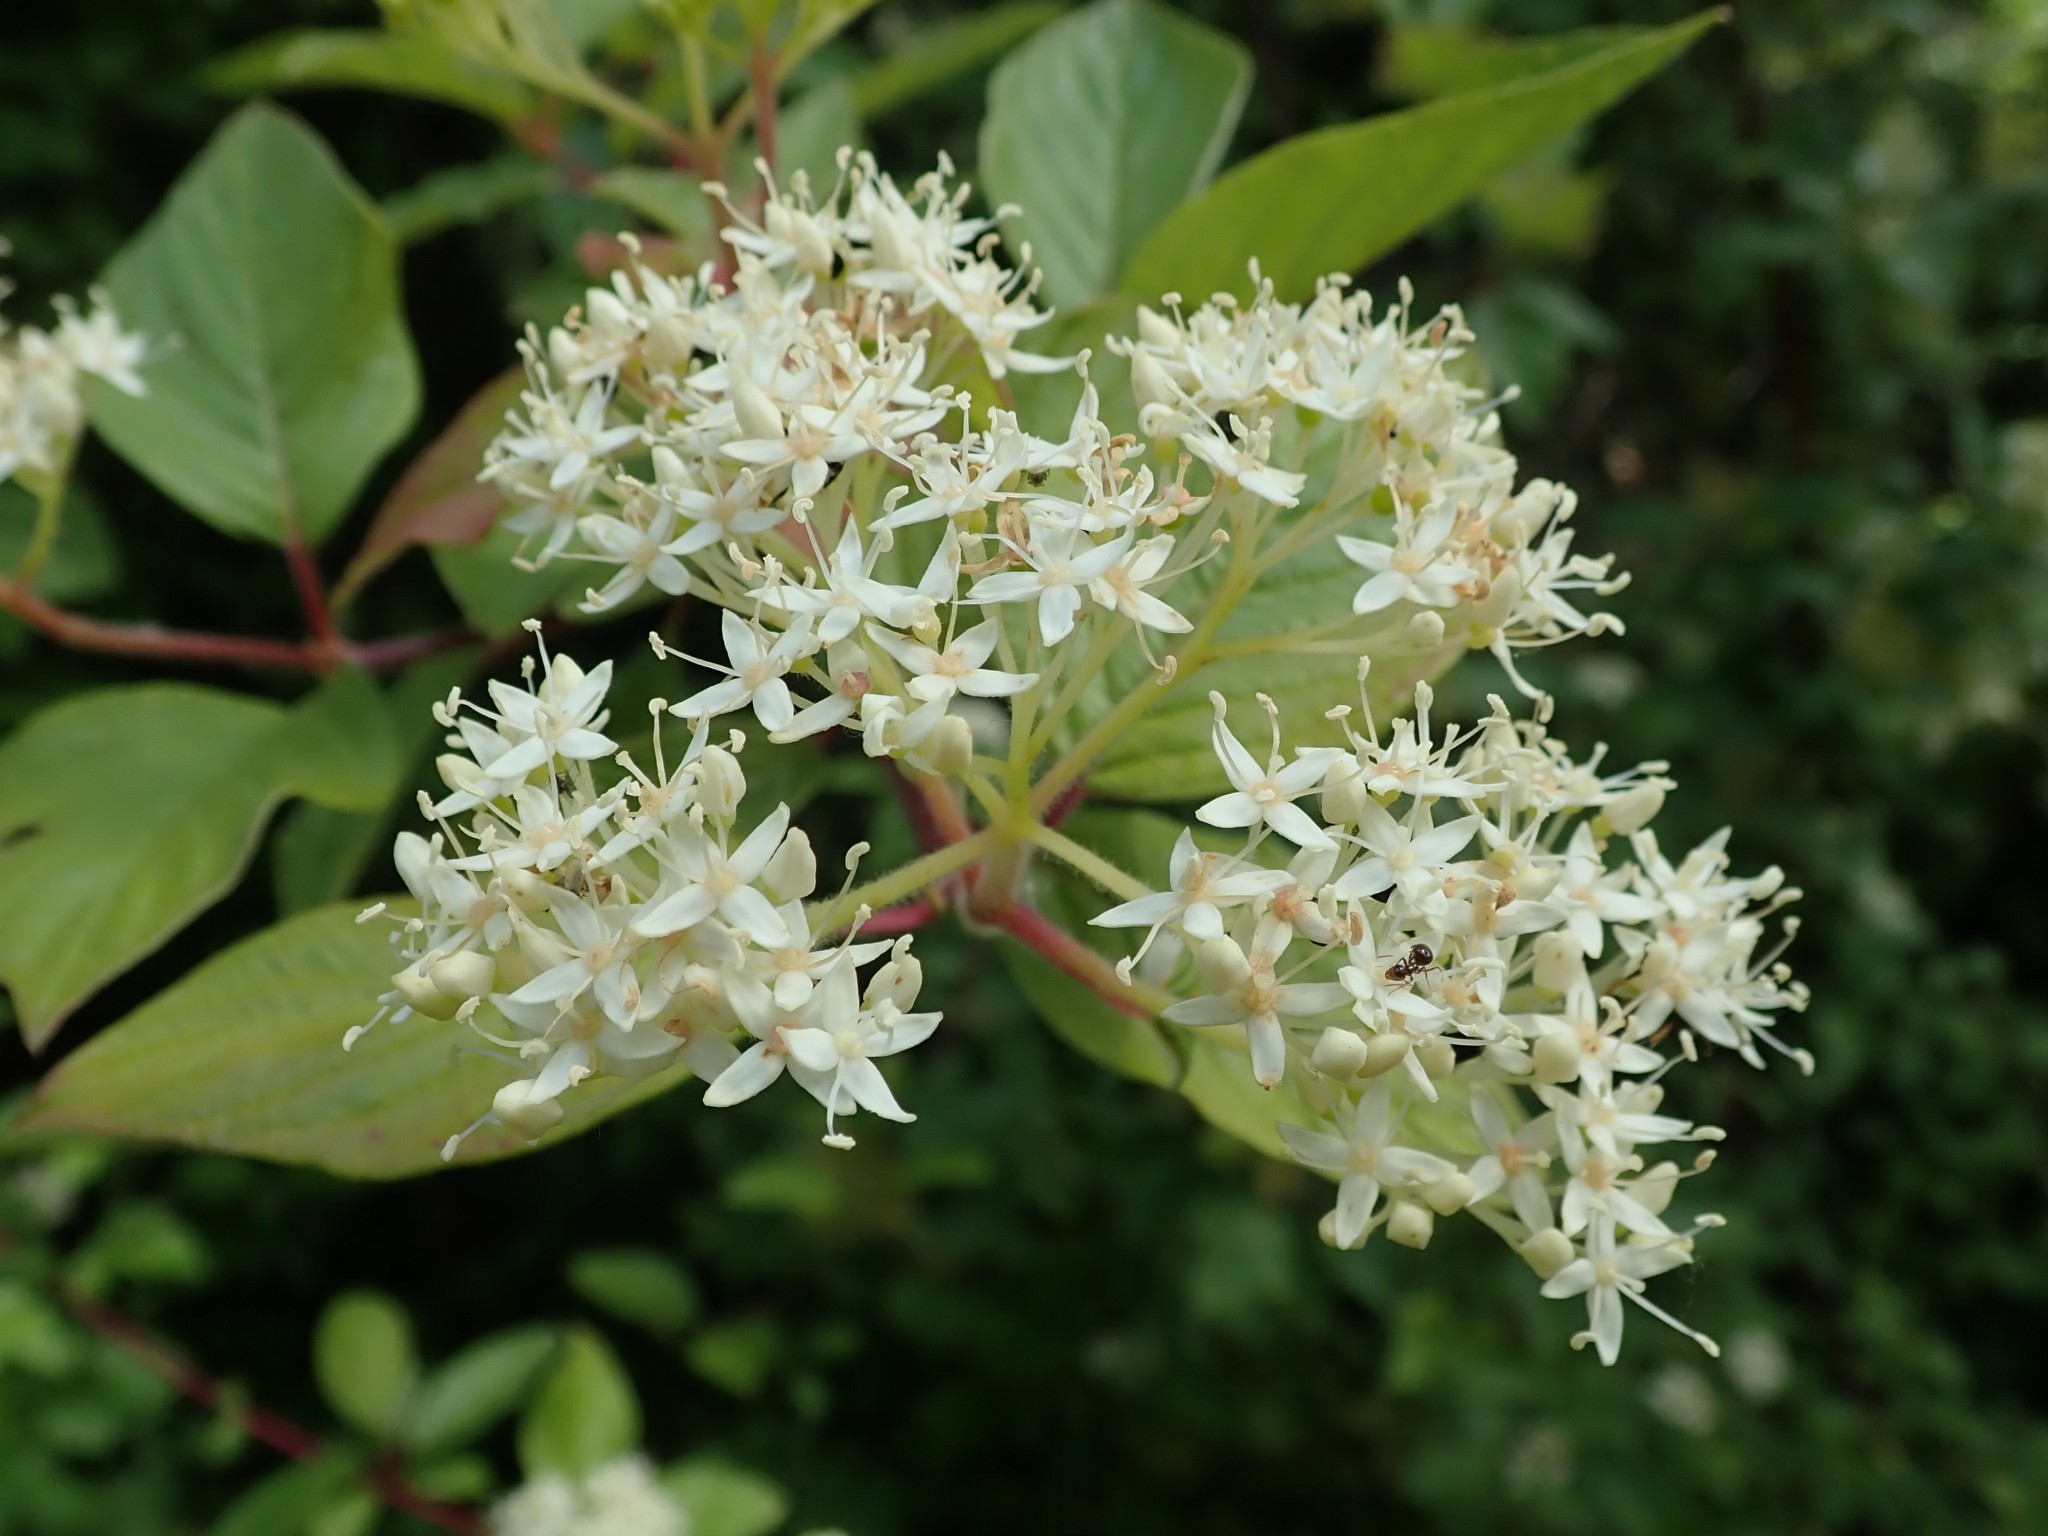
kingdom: Plantae
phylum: Tracheophyta
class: Magnoliopsida
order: Cornales
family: Cornaceae
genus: Cornus
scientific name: Cornus sericea
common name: Red-osier dogwood
